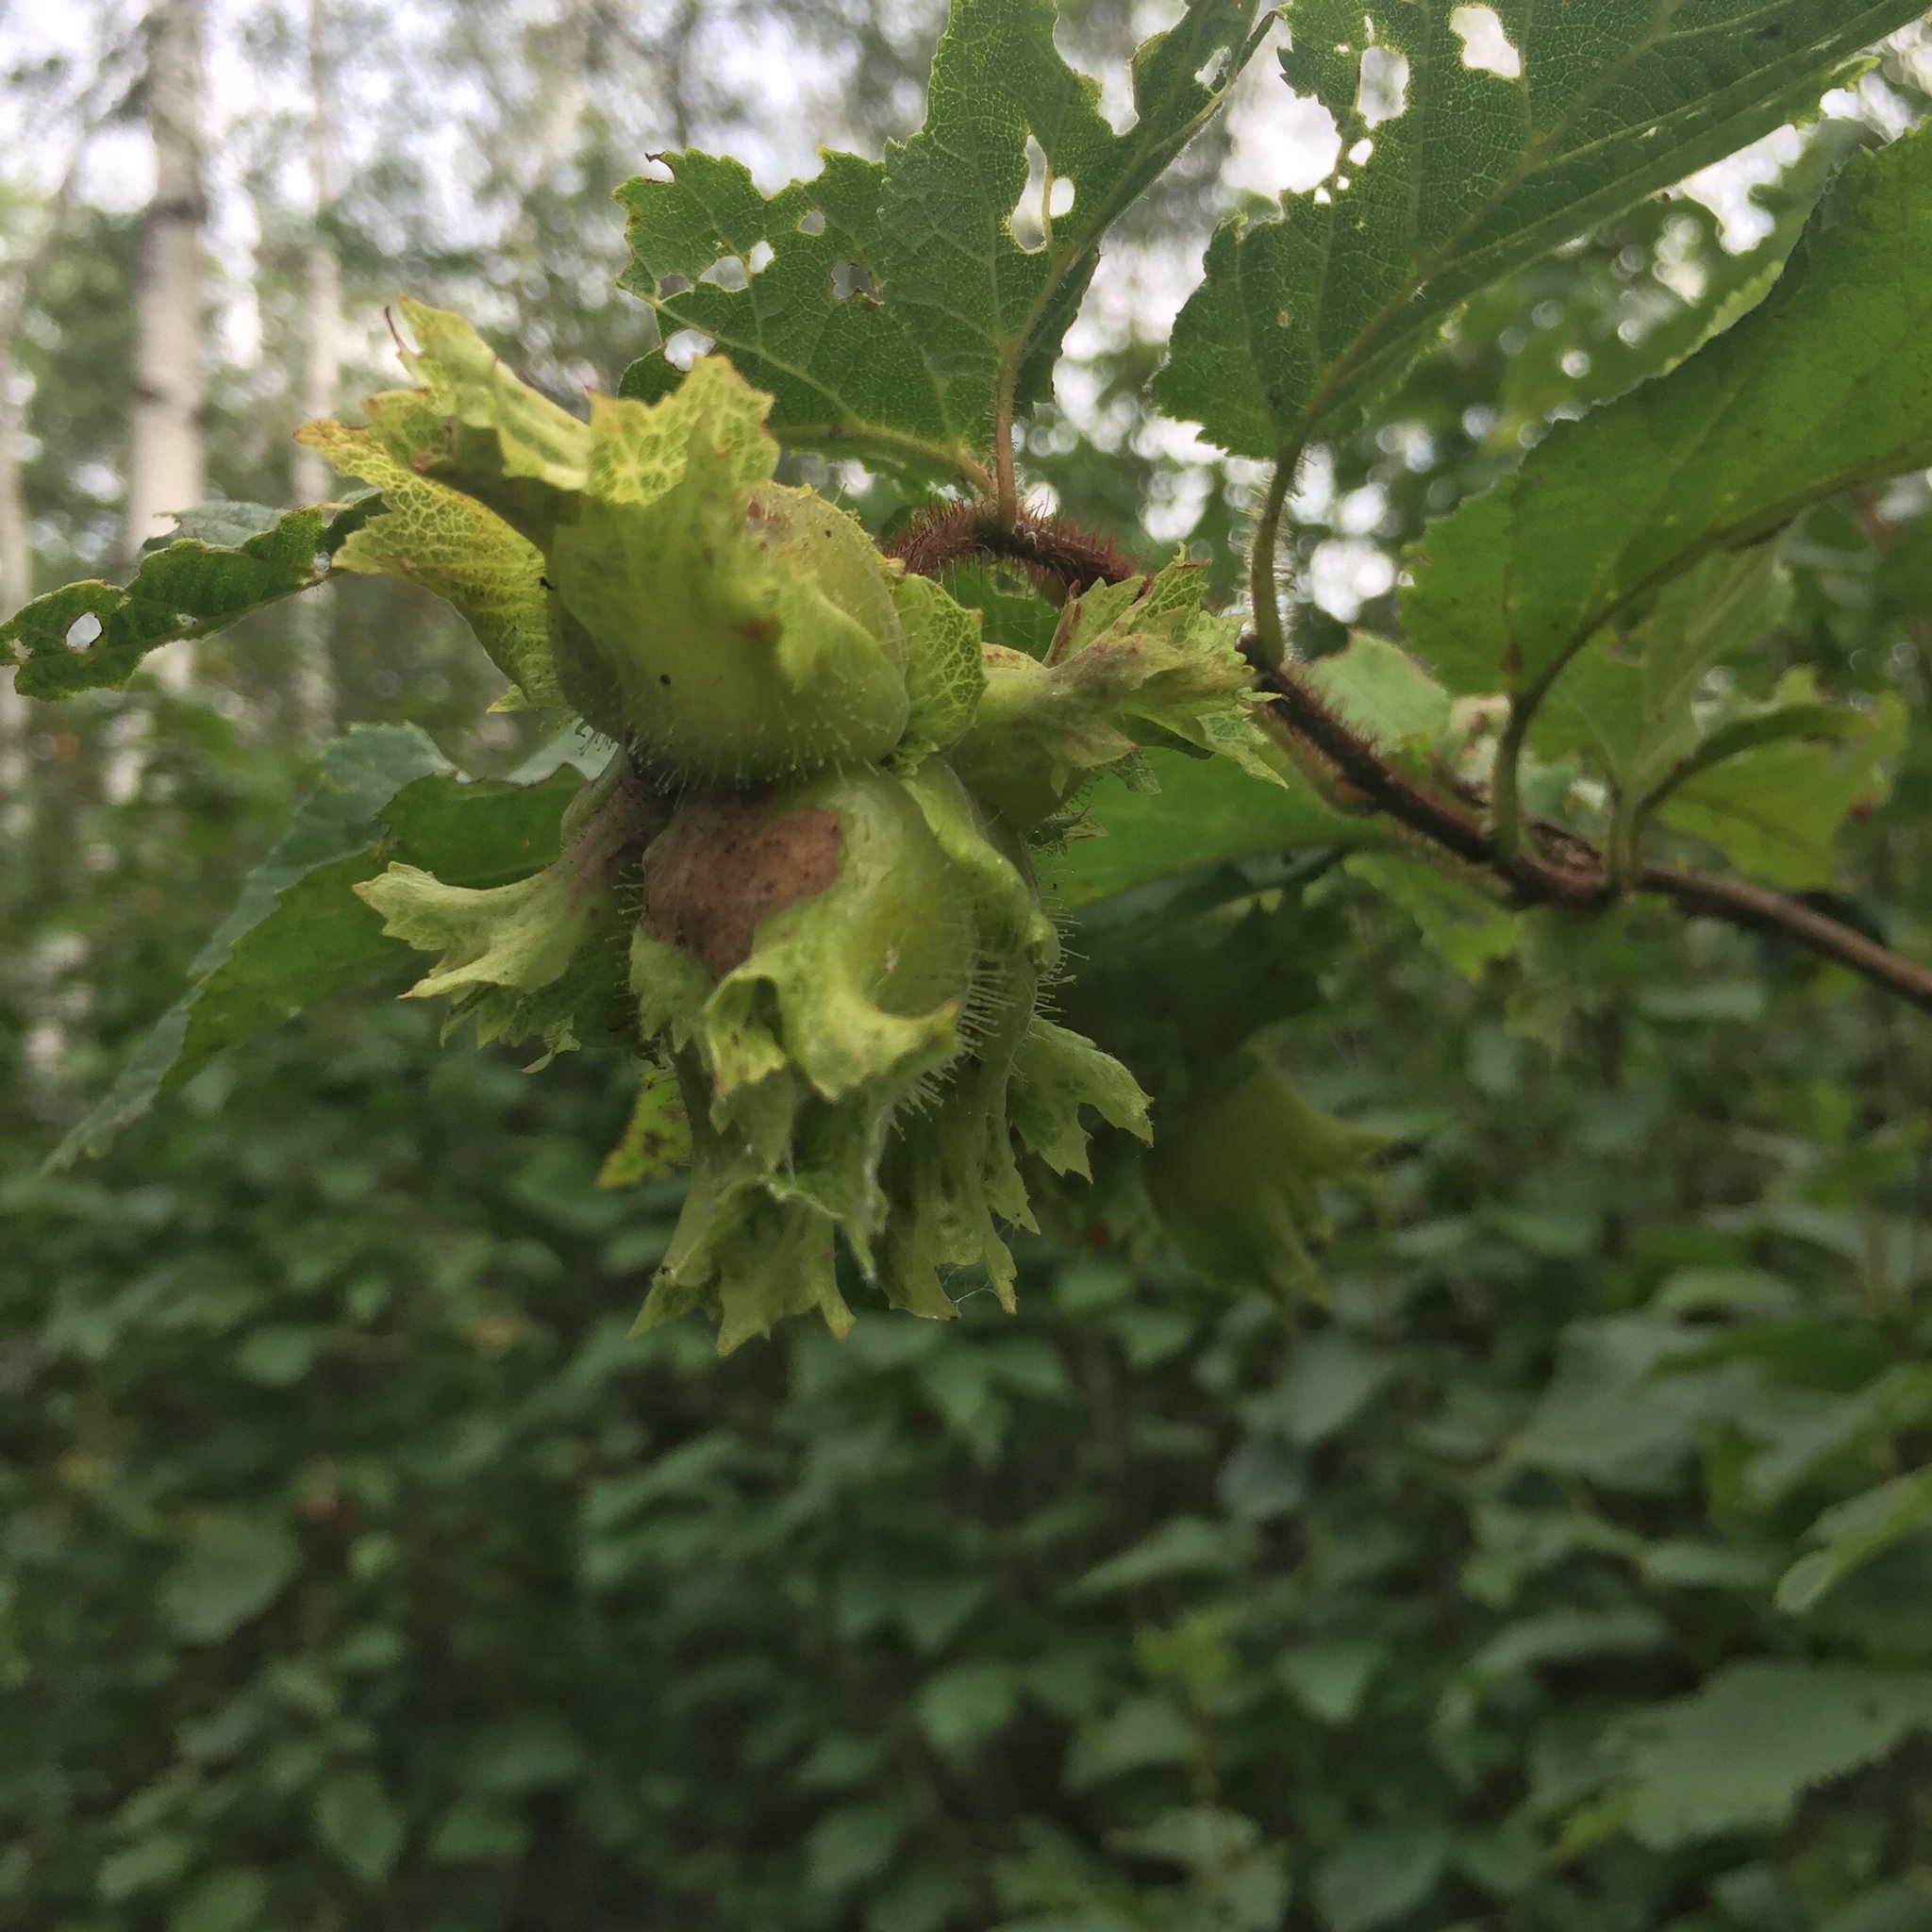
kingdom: Plantae
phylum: Tracheophyta
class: Magnoliopsida
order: Fagales
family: Betulaceae
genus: Corylus
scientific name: Corylus americana
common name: American hazel
